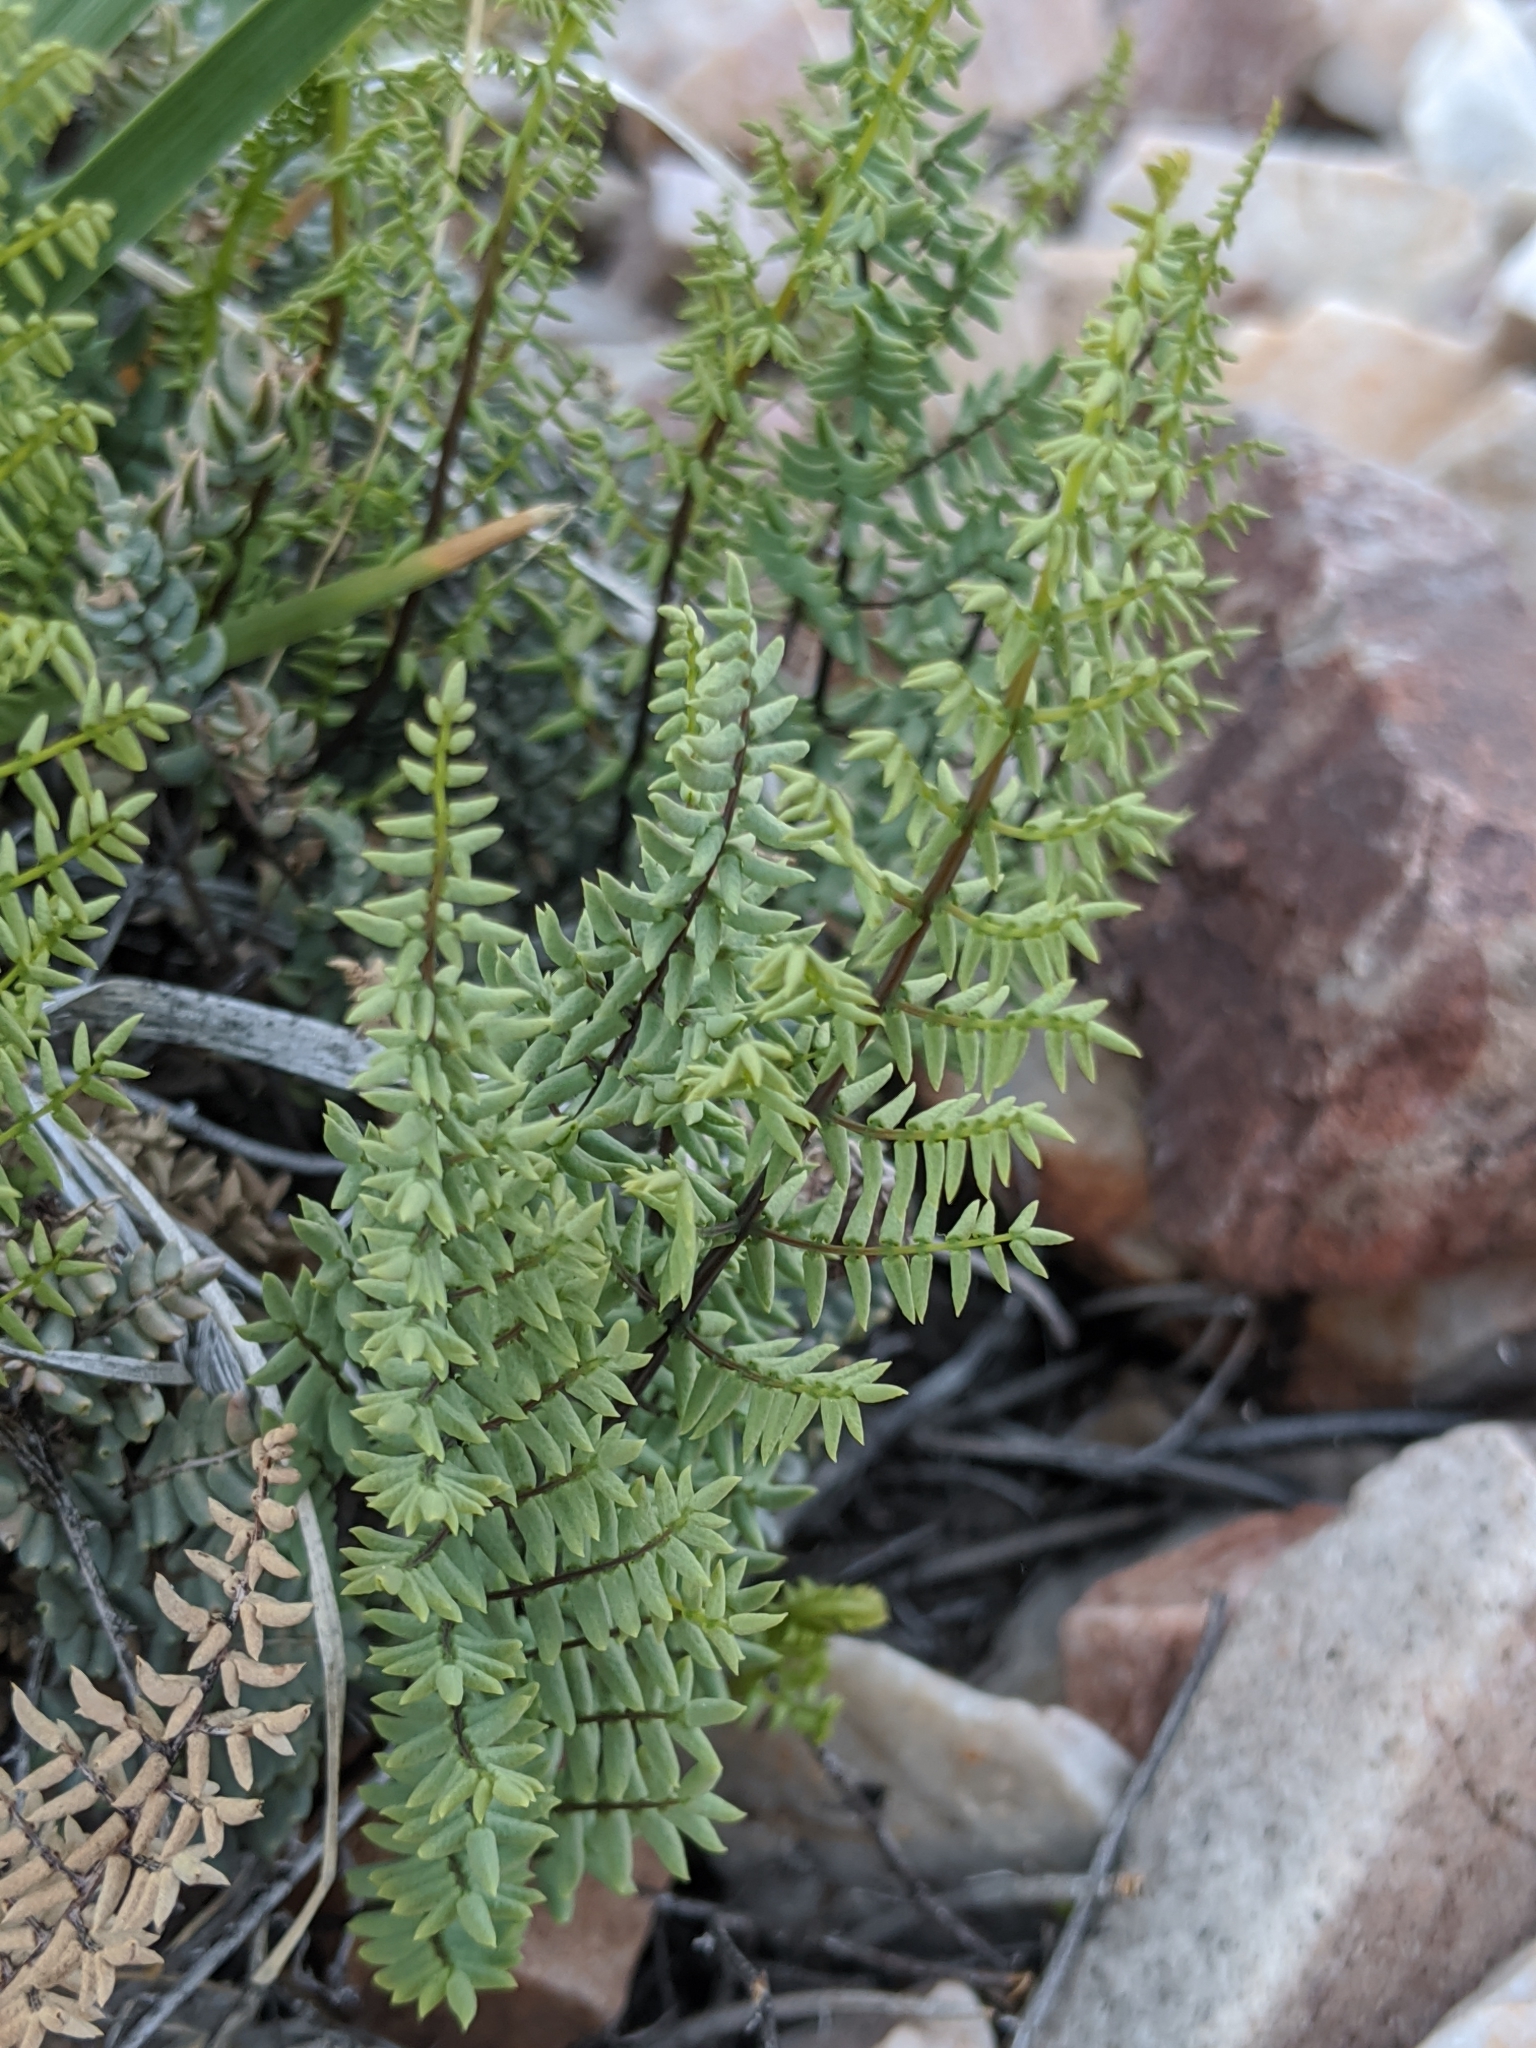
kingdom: Plantae
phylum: Tracheophyta
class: Polypodiopsida
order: Polypodiales
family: Pteridaceae
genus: Pellaea
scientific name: Pellaea mucronata
